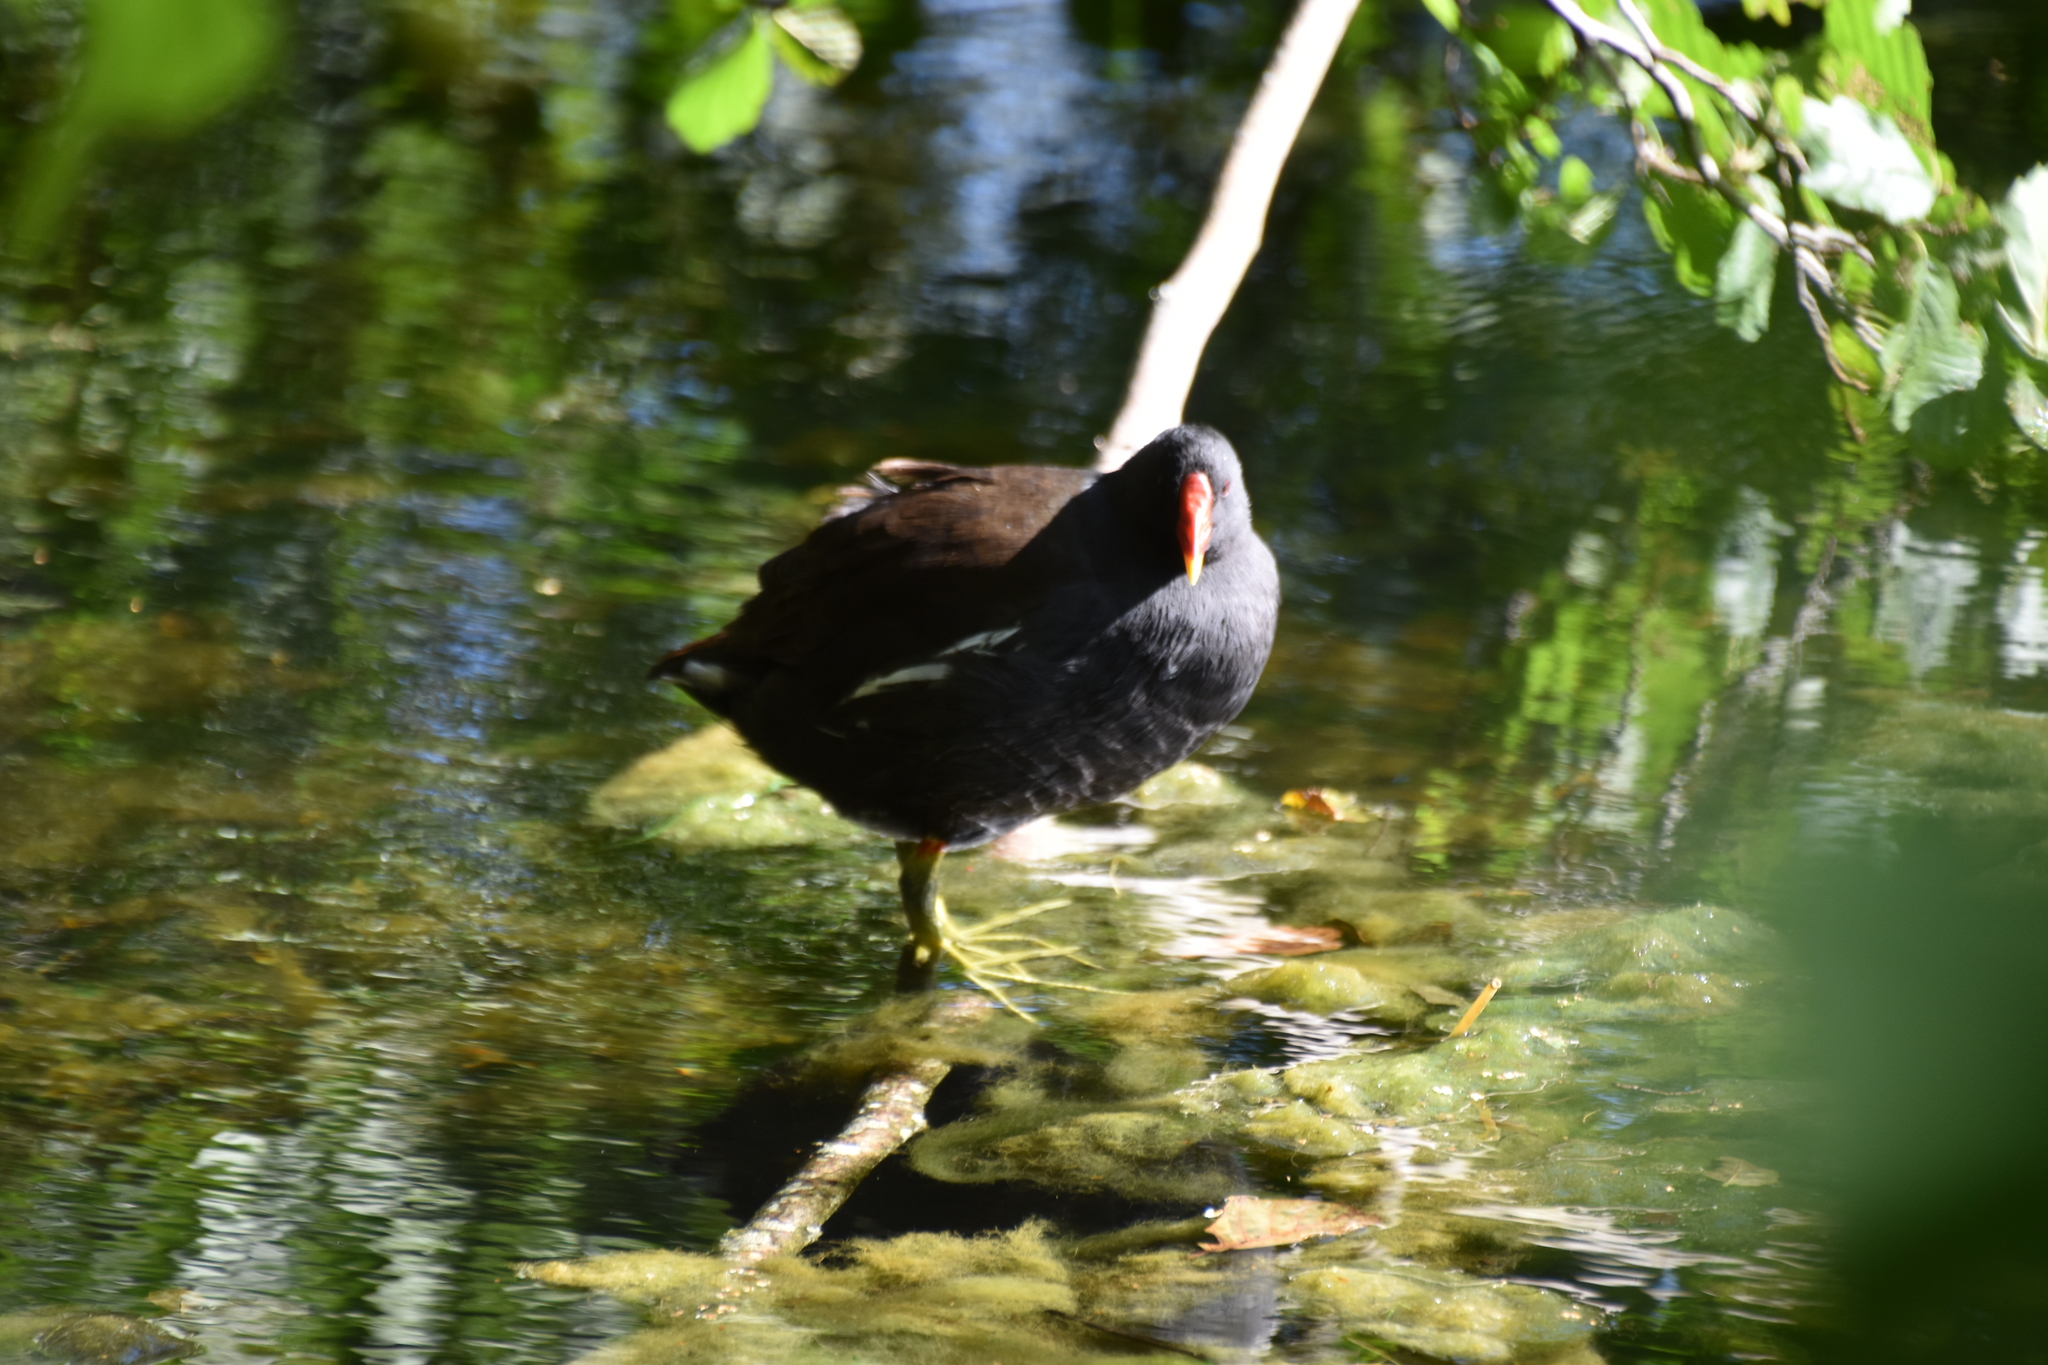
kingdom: Animalia
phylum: Chordata
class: Aves
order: Gruiformes
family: Rallidae
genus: Gallinula
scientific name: Gallinula chloropus
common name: Common moorhen
